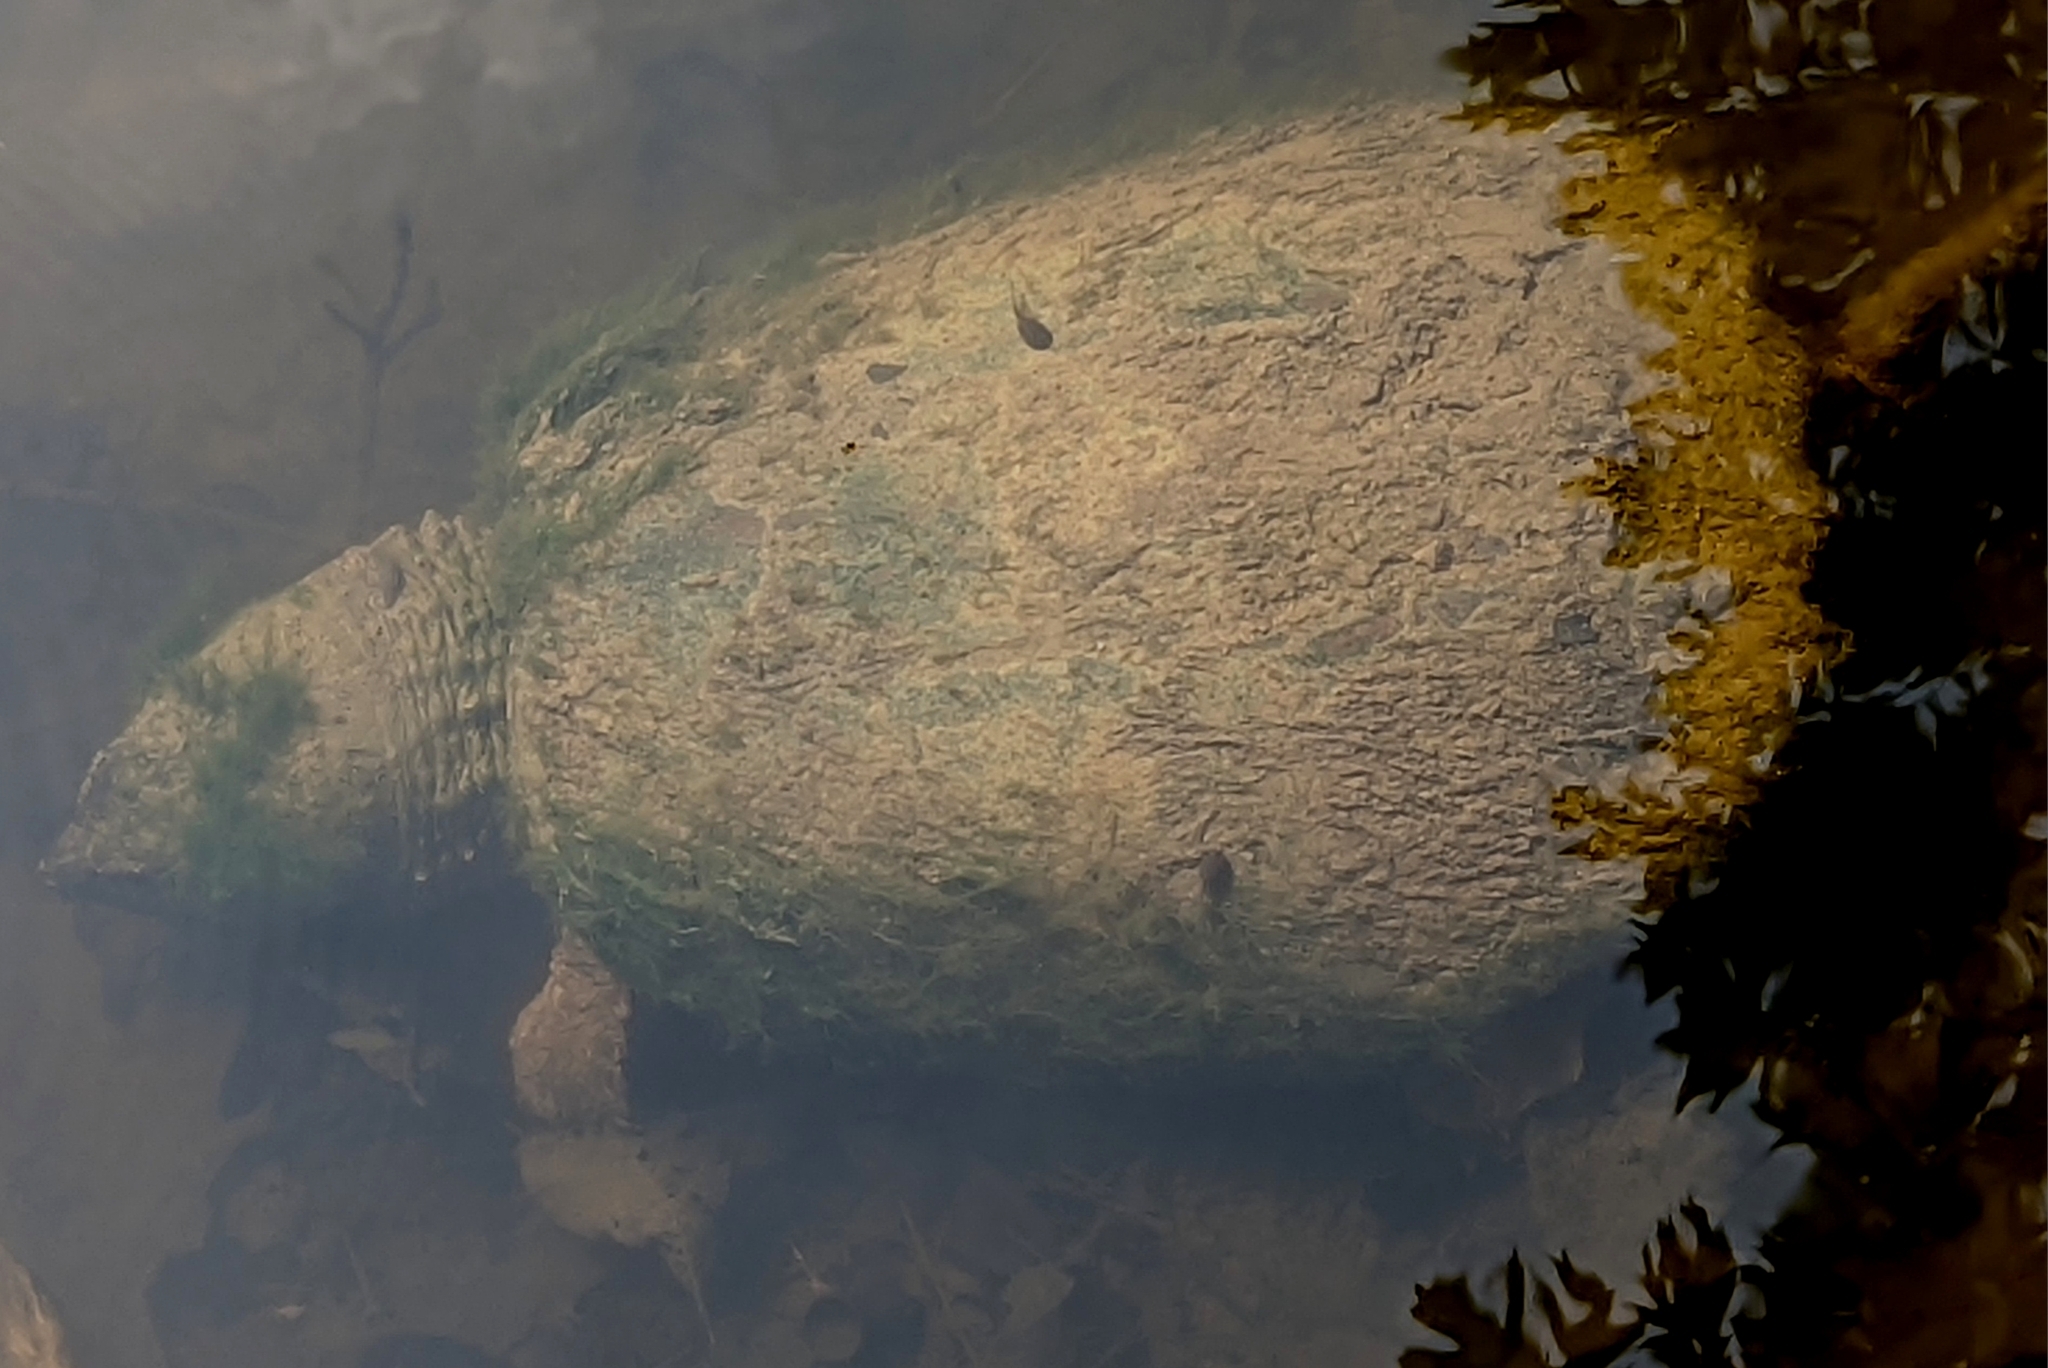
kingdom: Animalia
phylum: Chordata
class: Testudines
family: Chelydridae
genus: Chelydra
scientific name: Chelydra serpentina
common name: Common snapping turtle
